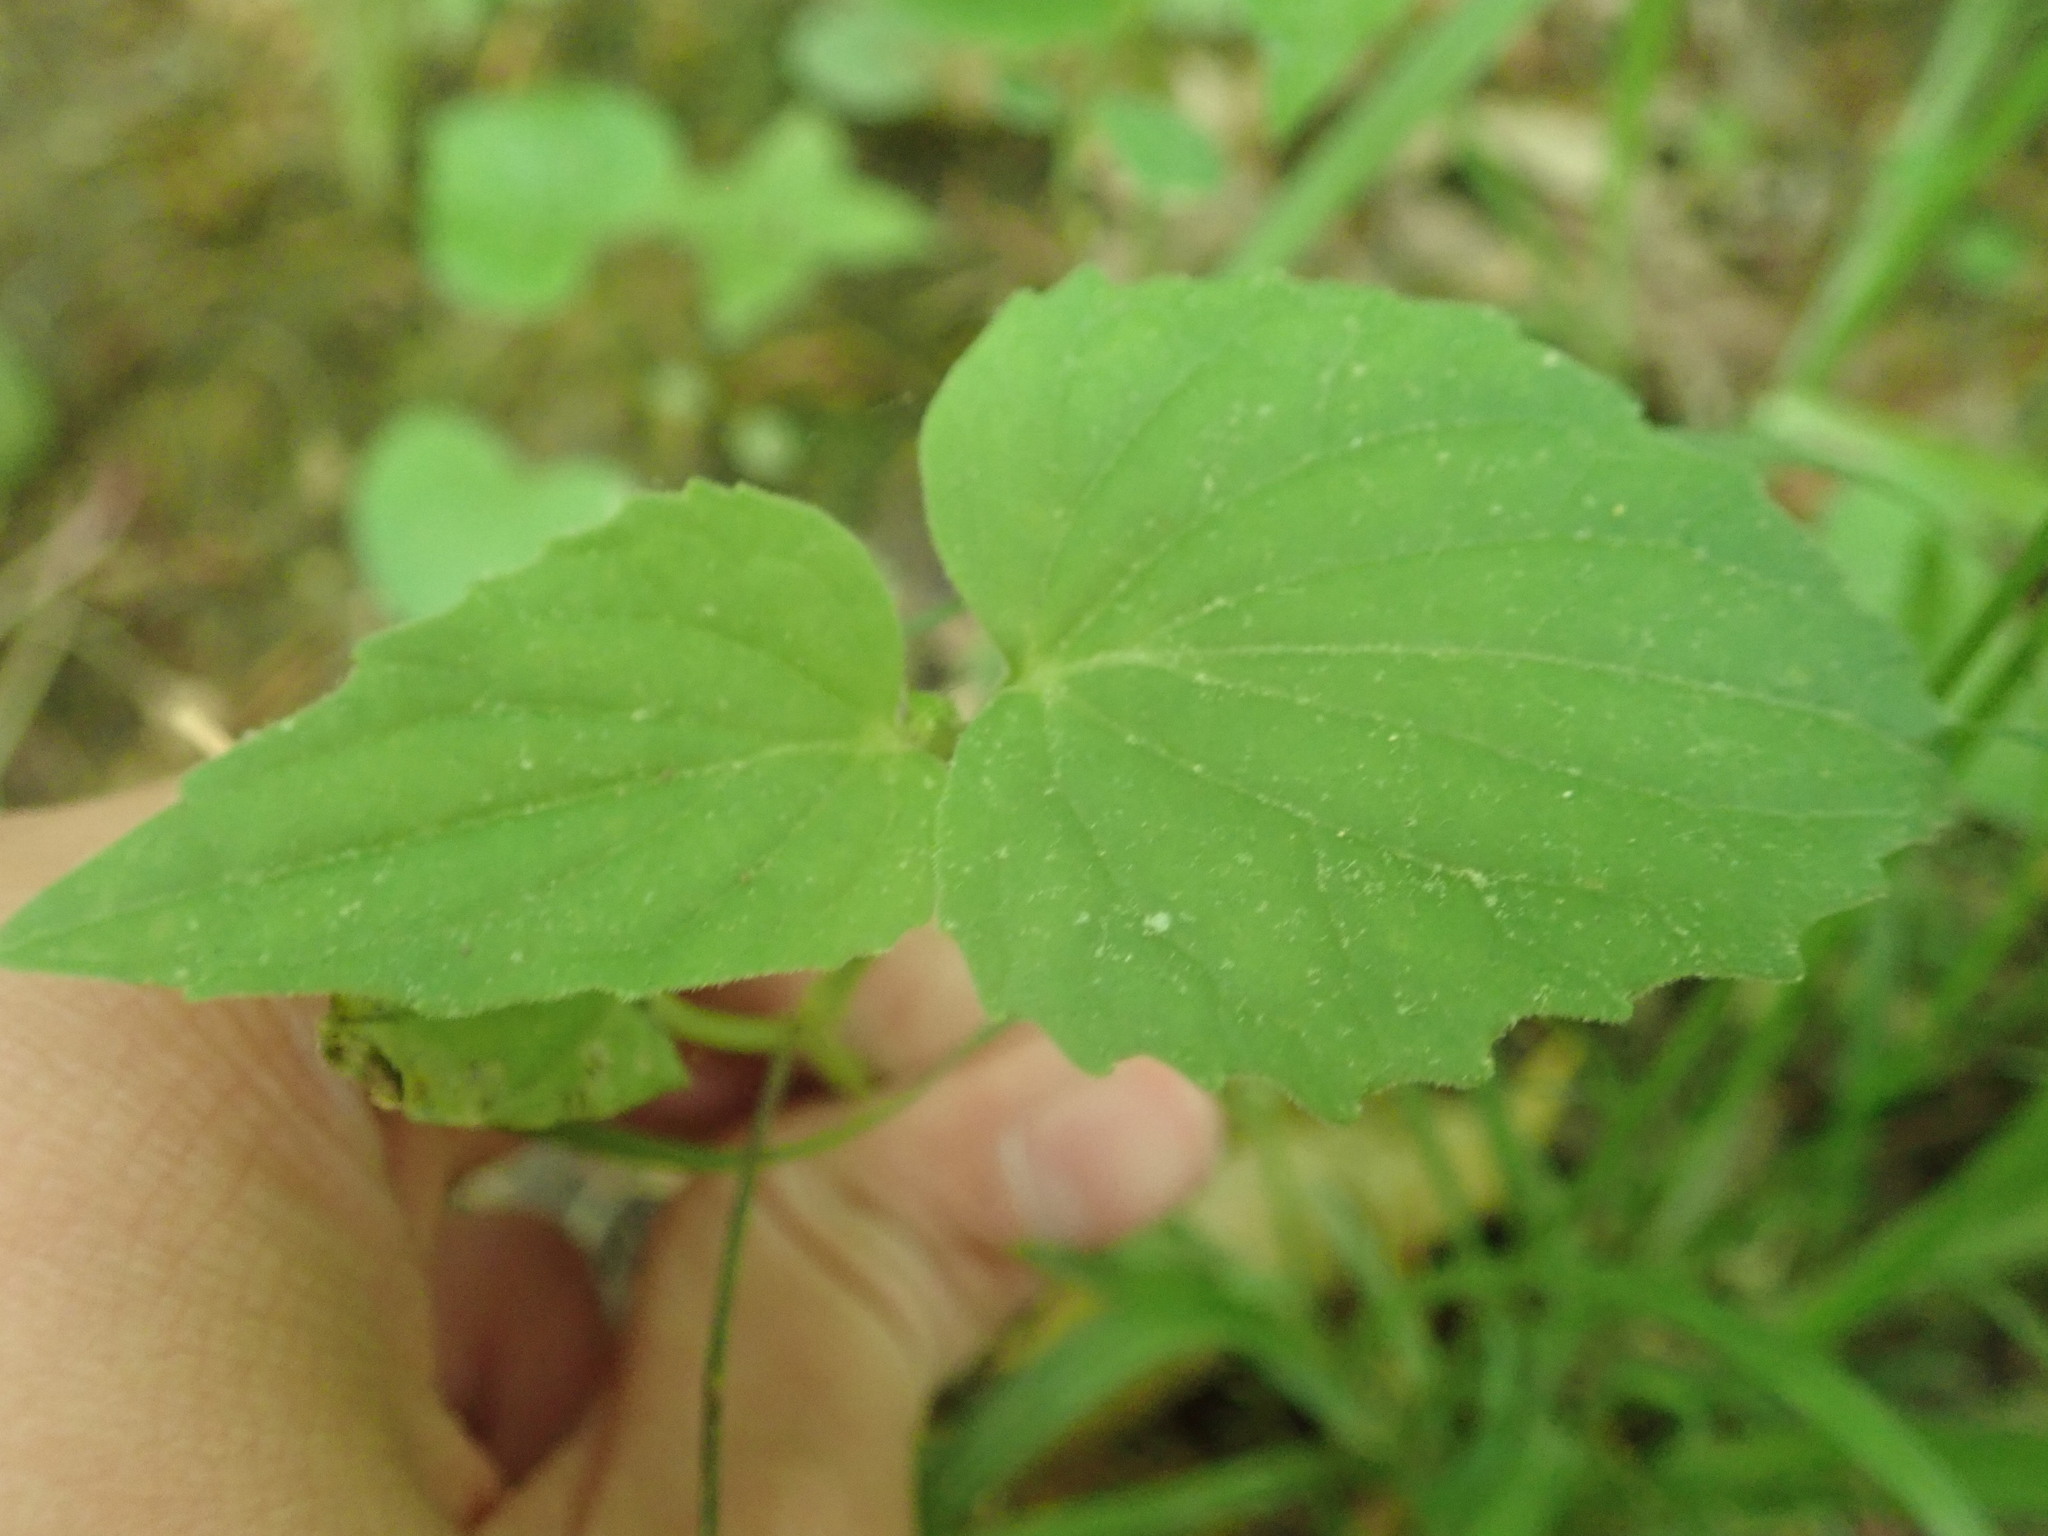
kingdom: Plantae
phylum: Tracheophyta
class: Magnoliopsida
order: Malpighiales
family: Violaceae
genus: Viola
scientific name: Viola eriocarpa
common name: Smooth yellow violet
